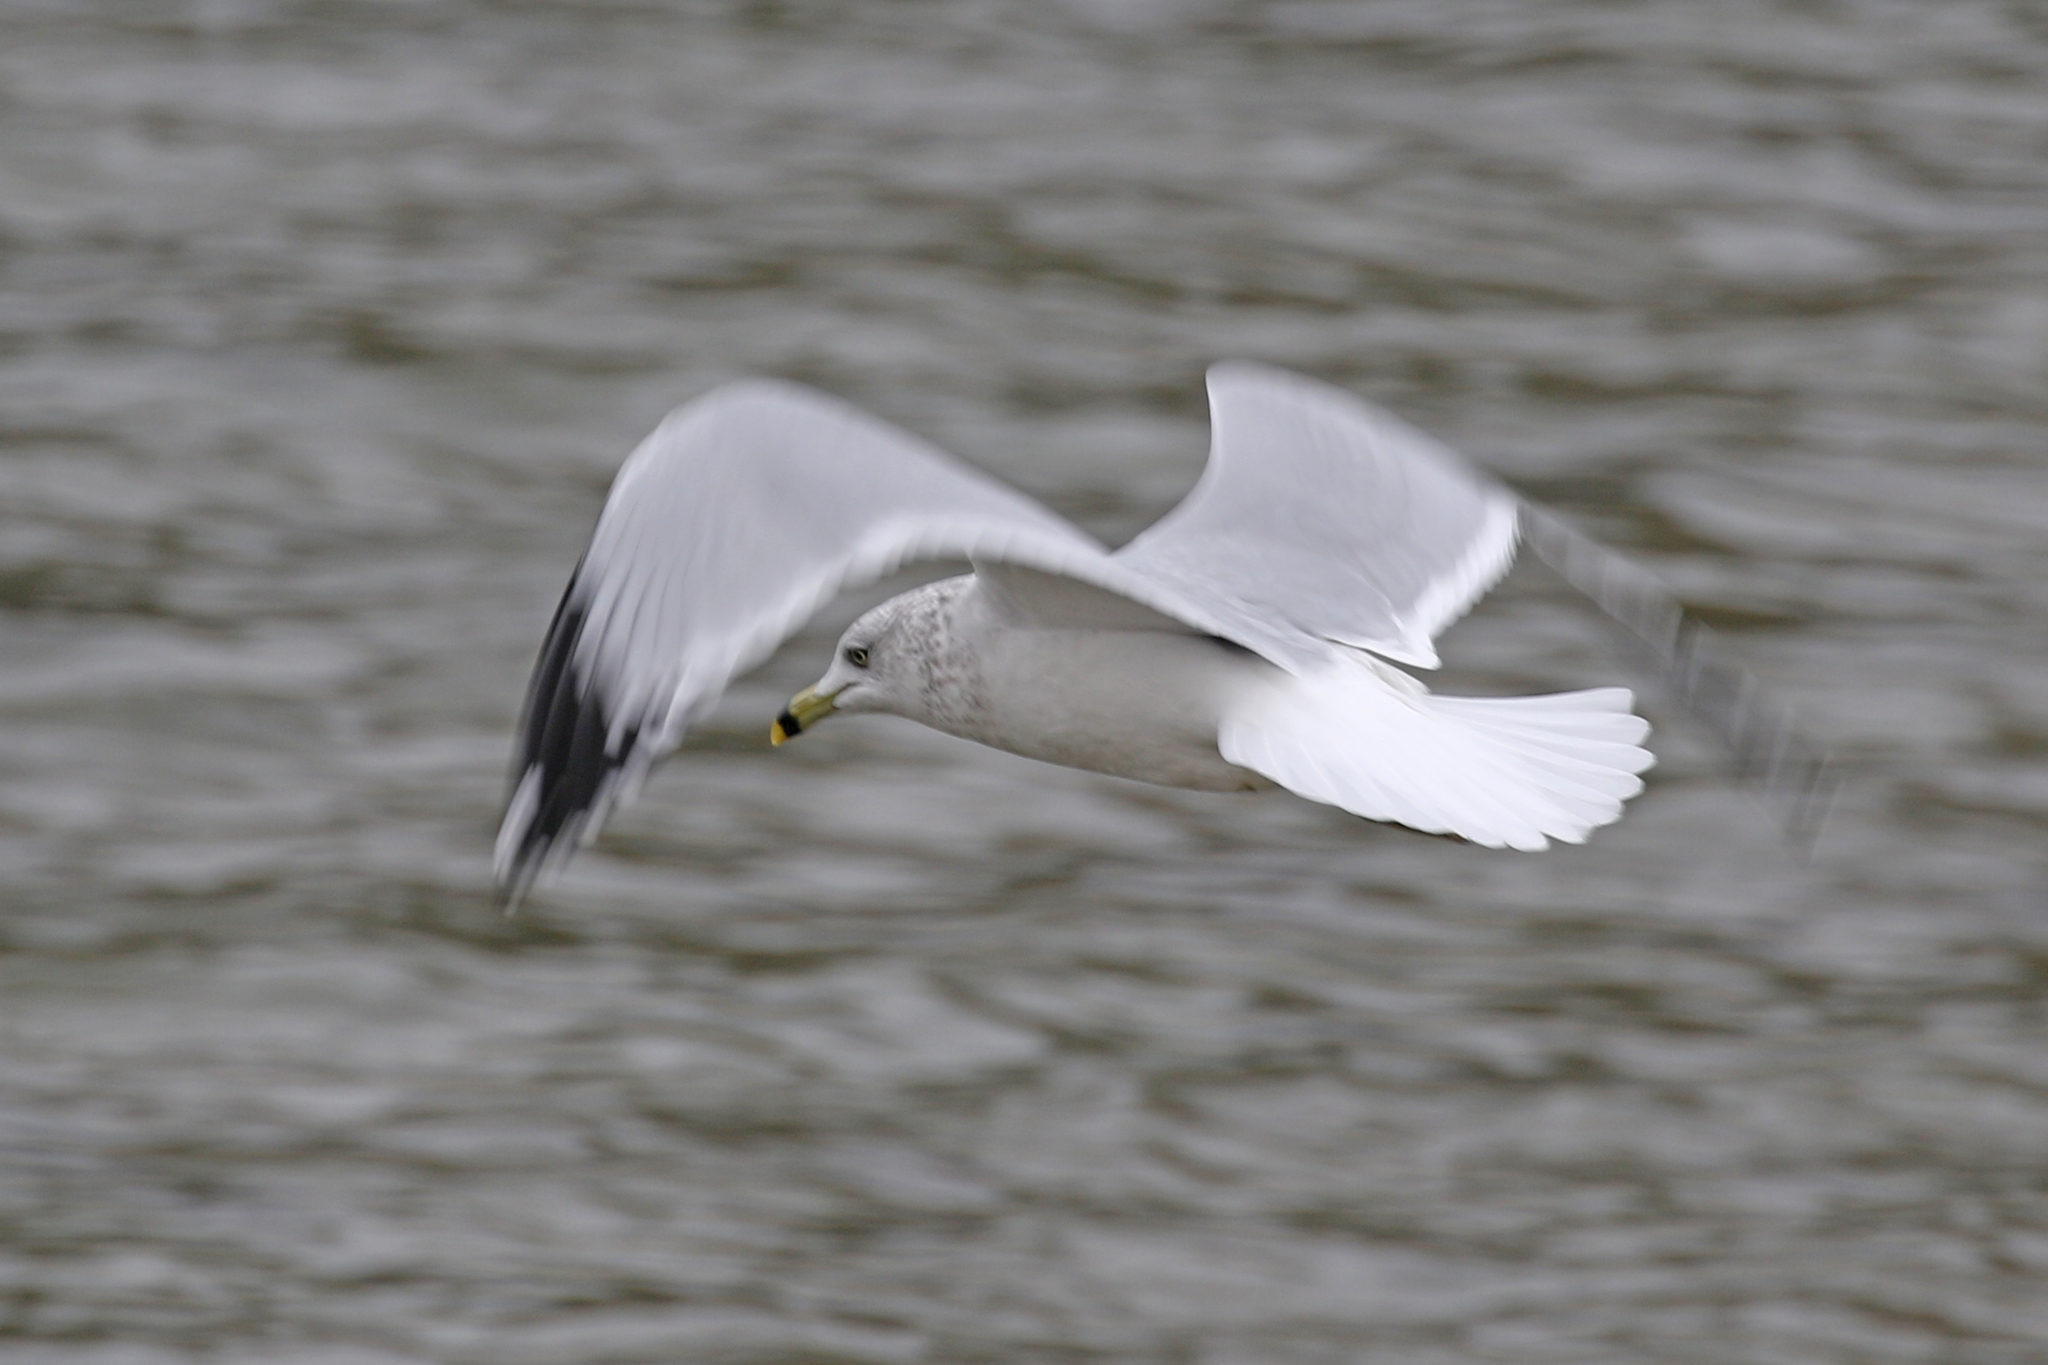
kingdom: Animalia
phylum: Chordata
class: Aves
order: Charadriiformes
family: Laridae
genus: Larus
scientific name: Larus delawarensis
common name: Ring-billed gull
